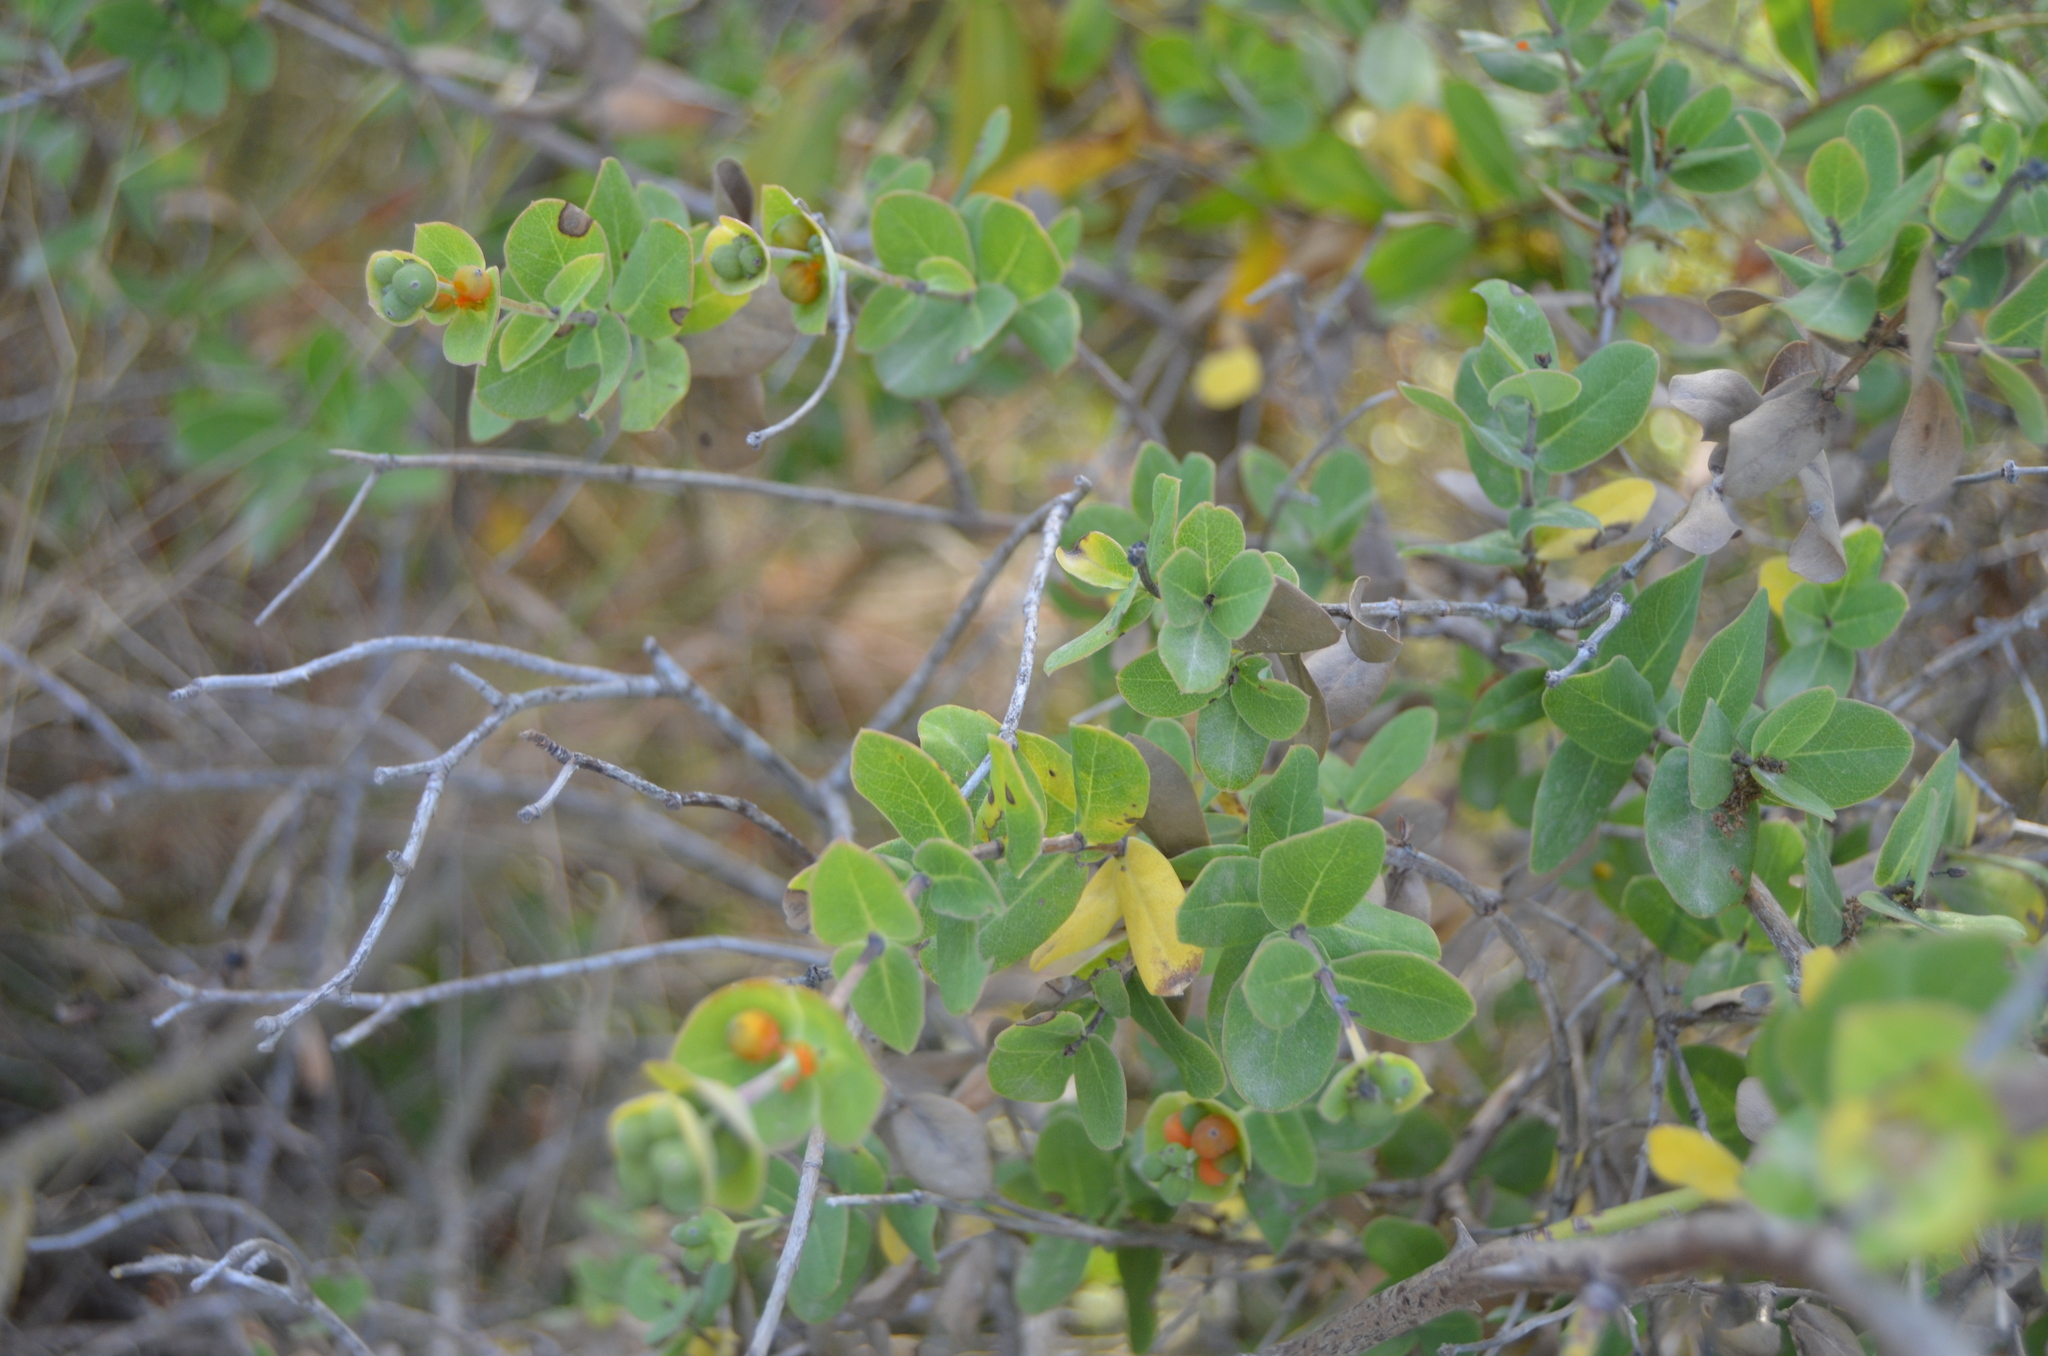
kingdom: Plantae
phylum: Tracheophyta
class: Magnoliopsida
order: Dipsacales
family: Caprifoliaceae
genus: Lonicera
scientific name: Lonicera implexa
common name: Minorca honeysuckle
